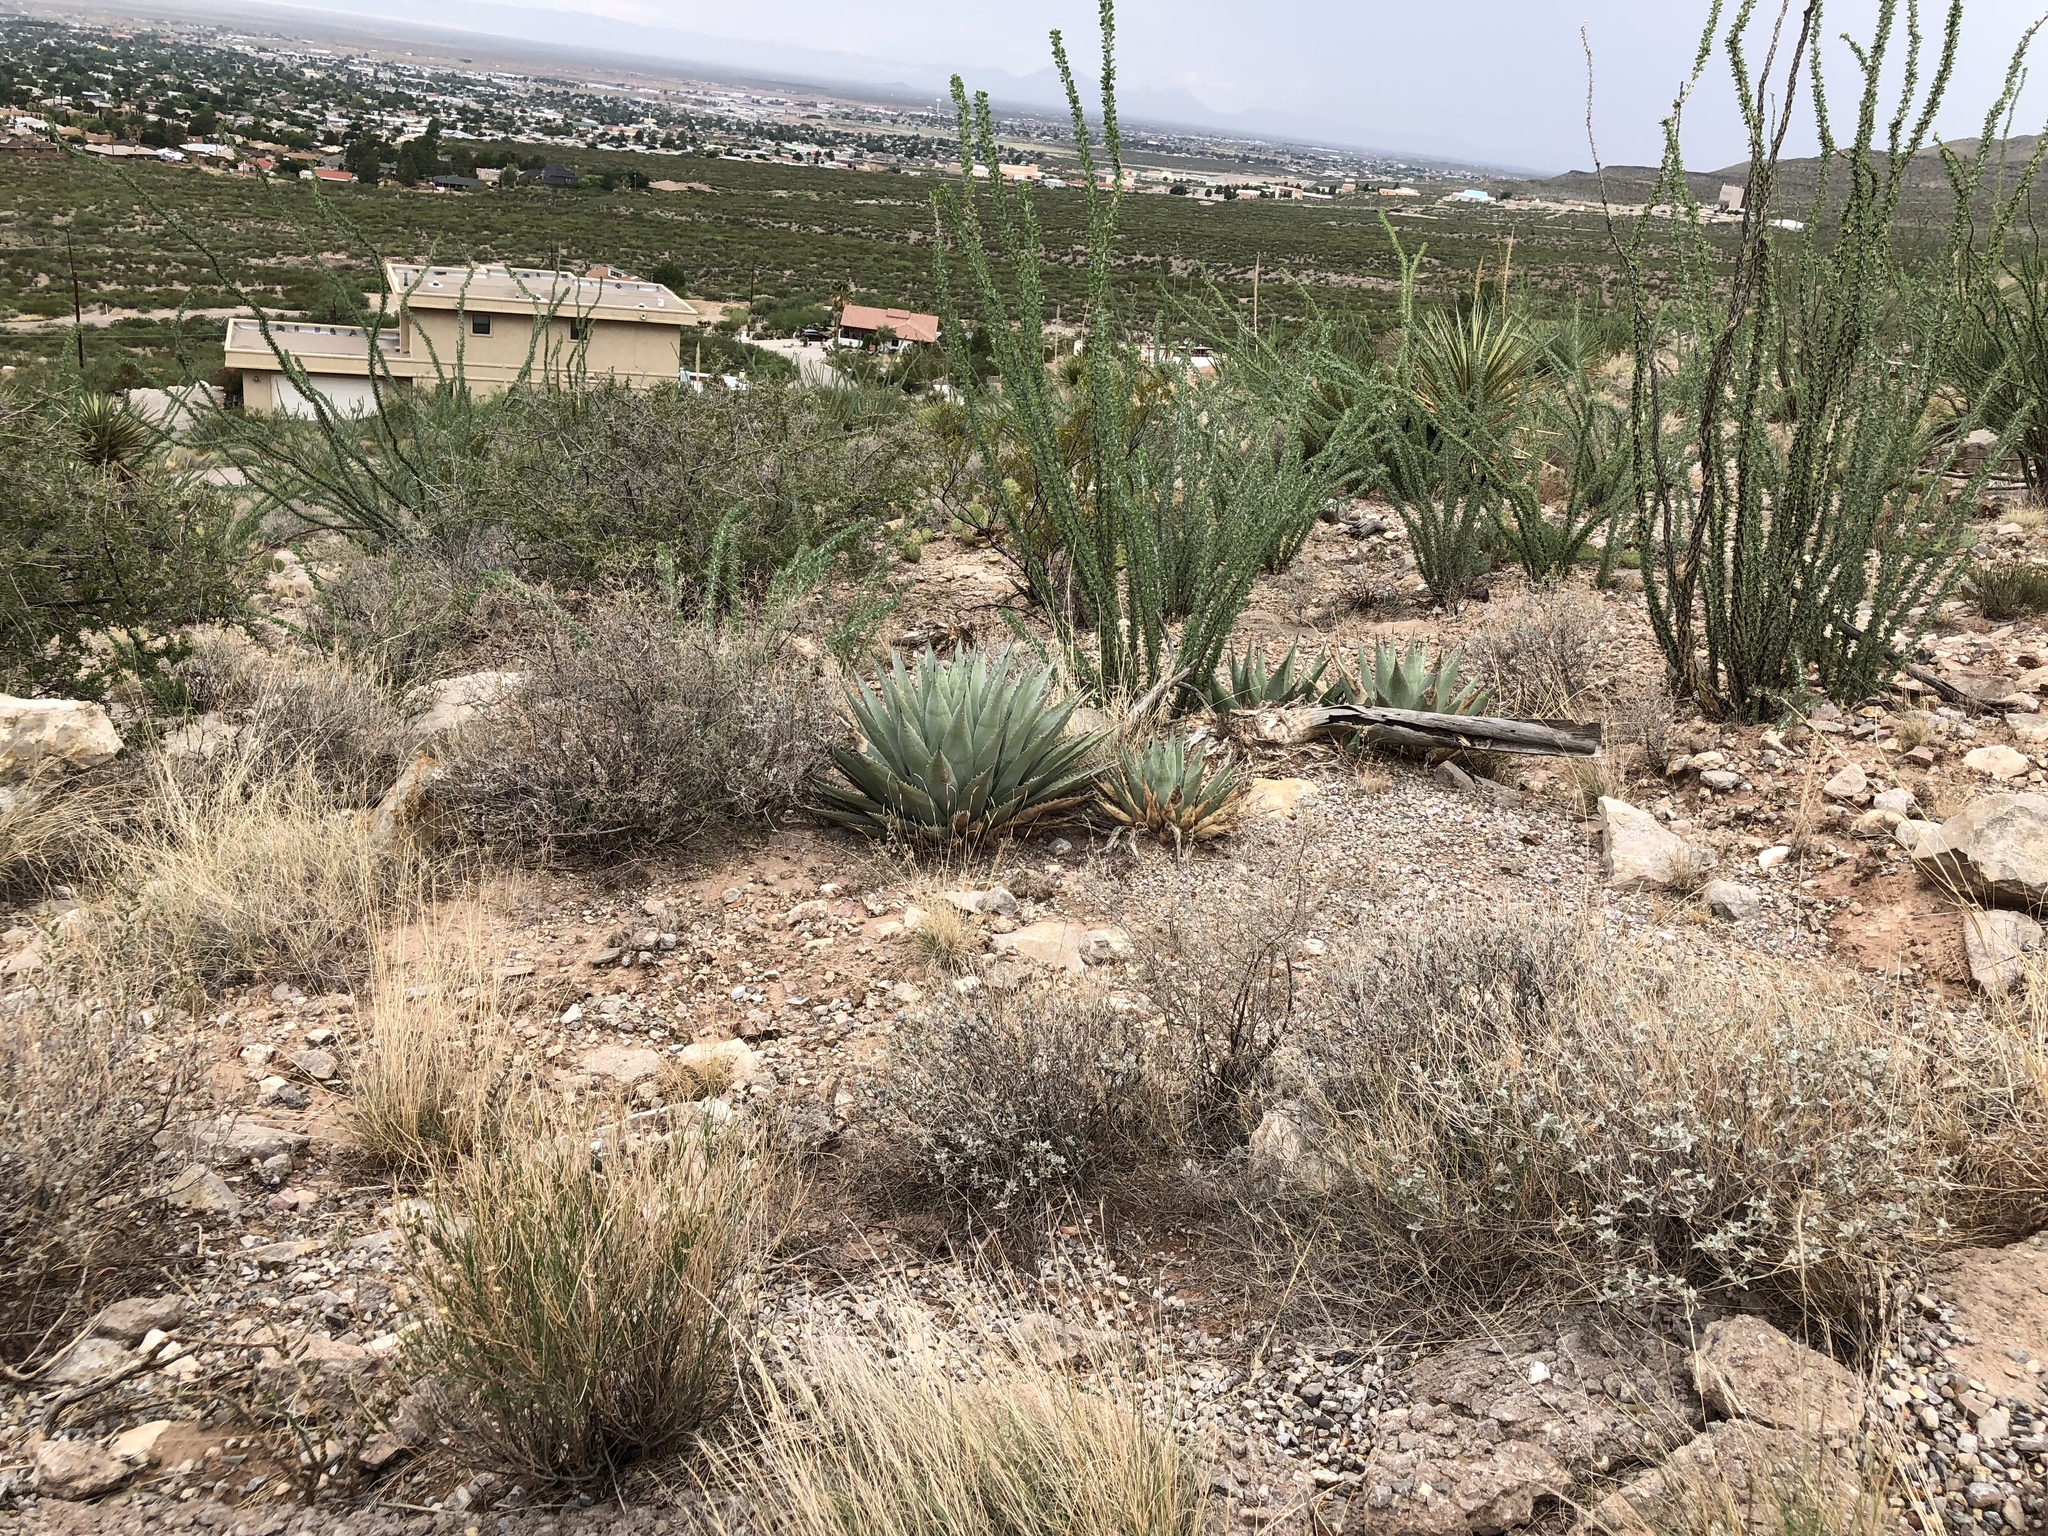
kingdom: Plantae
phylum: Tracheophyta
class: Liliopsida
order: Asparagales
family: Asparagaceae
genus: Agave
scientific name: Agave parryi
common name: Parry's agave
